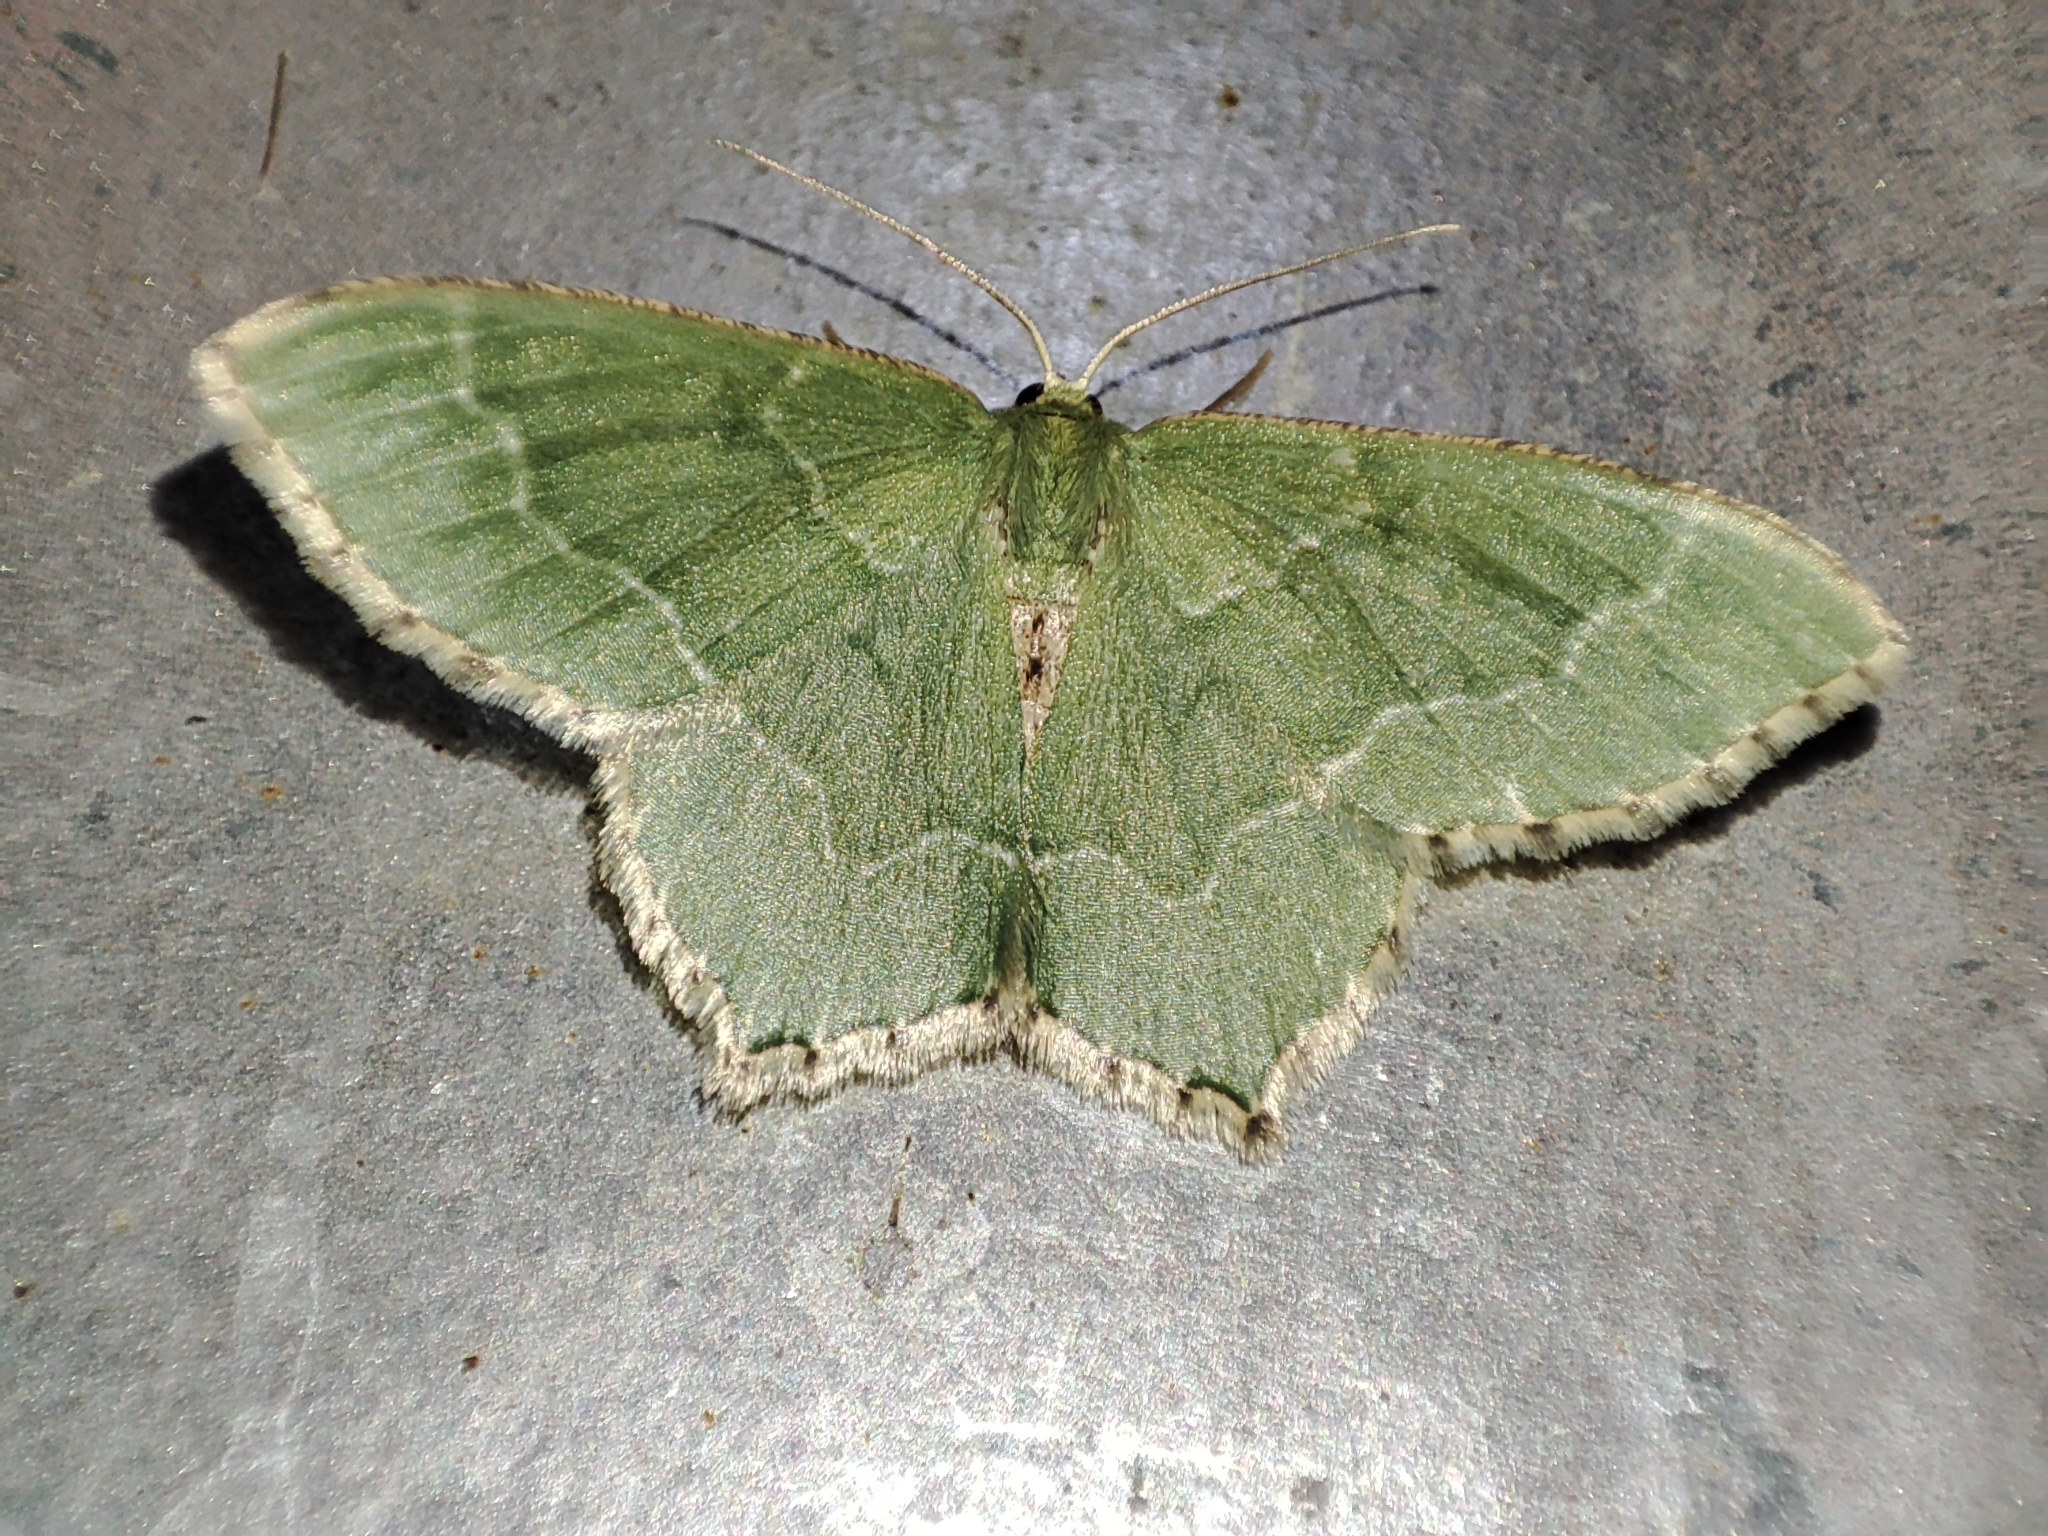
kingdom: Animalia
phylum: Arthropoda
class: Insecta
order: Lepidoptera
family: Geometridae
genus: Hemithea
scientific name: Hemithea aestivaria
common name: Common emerald
